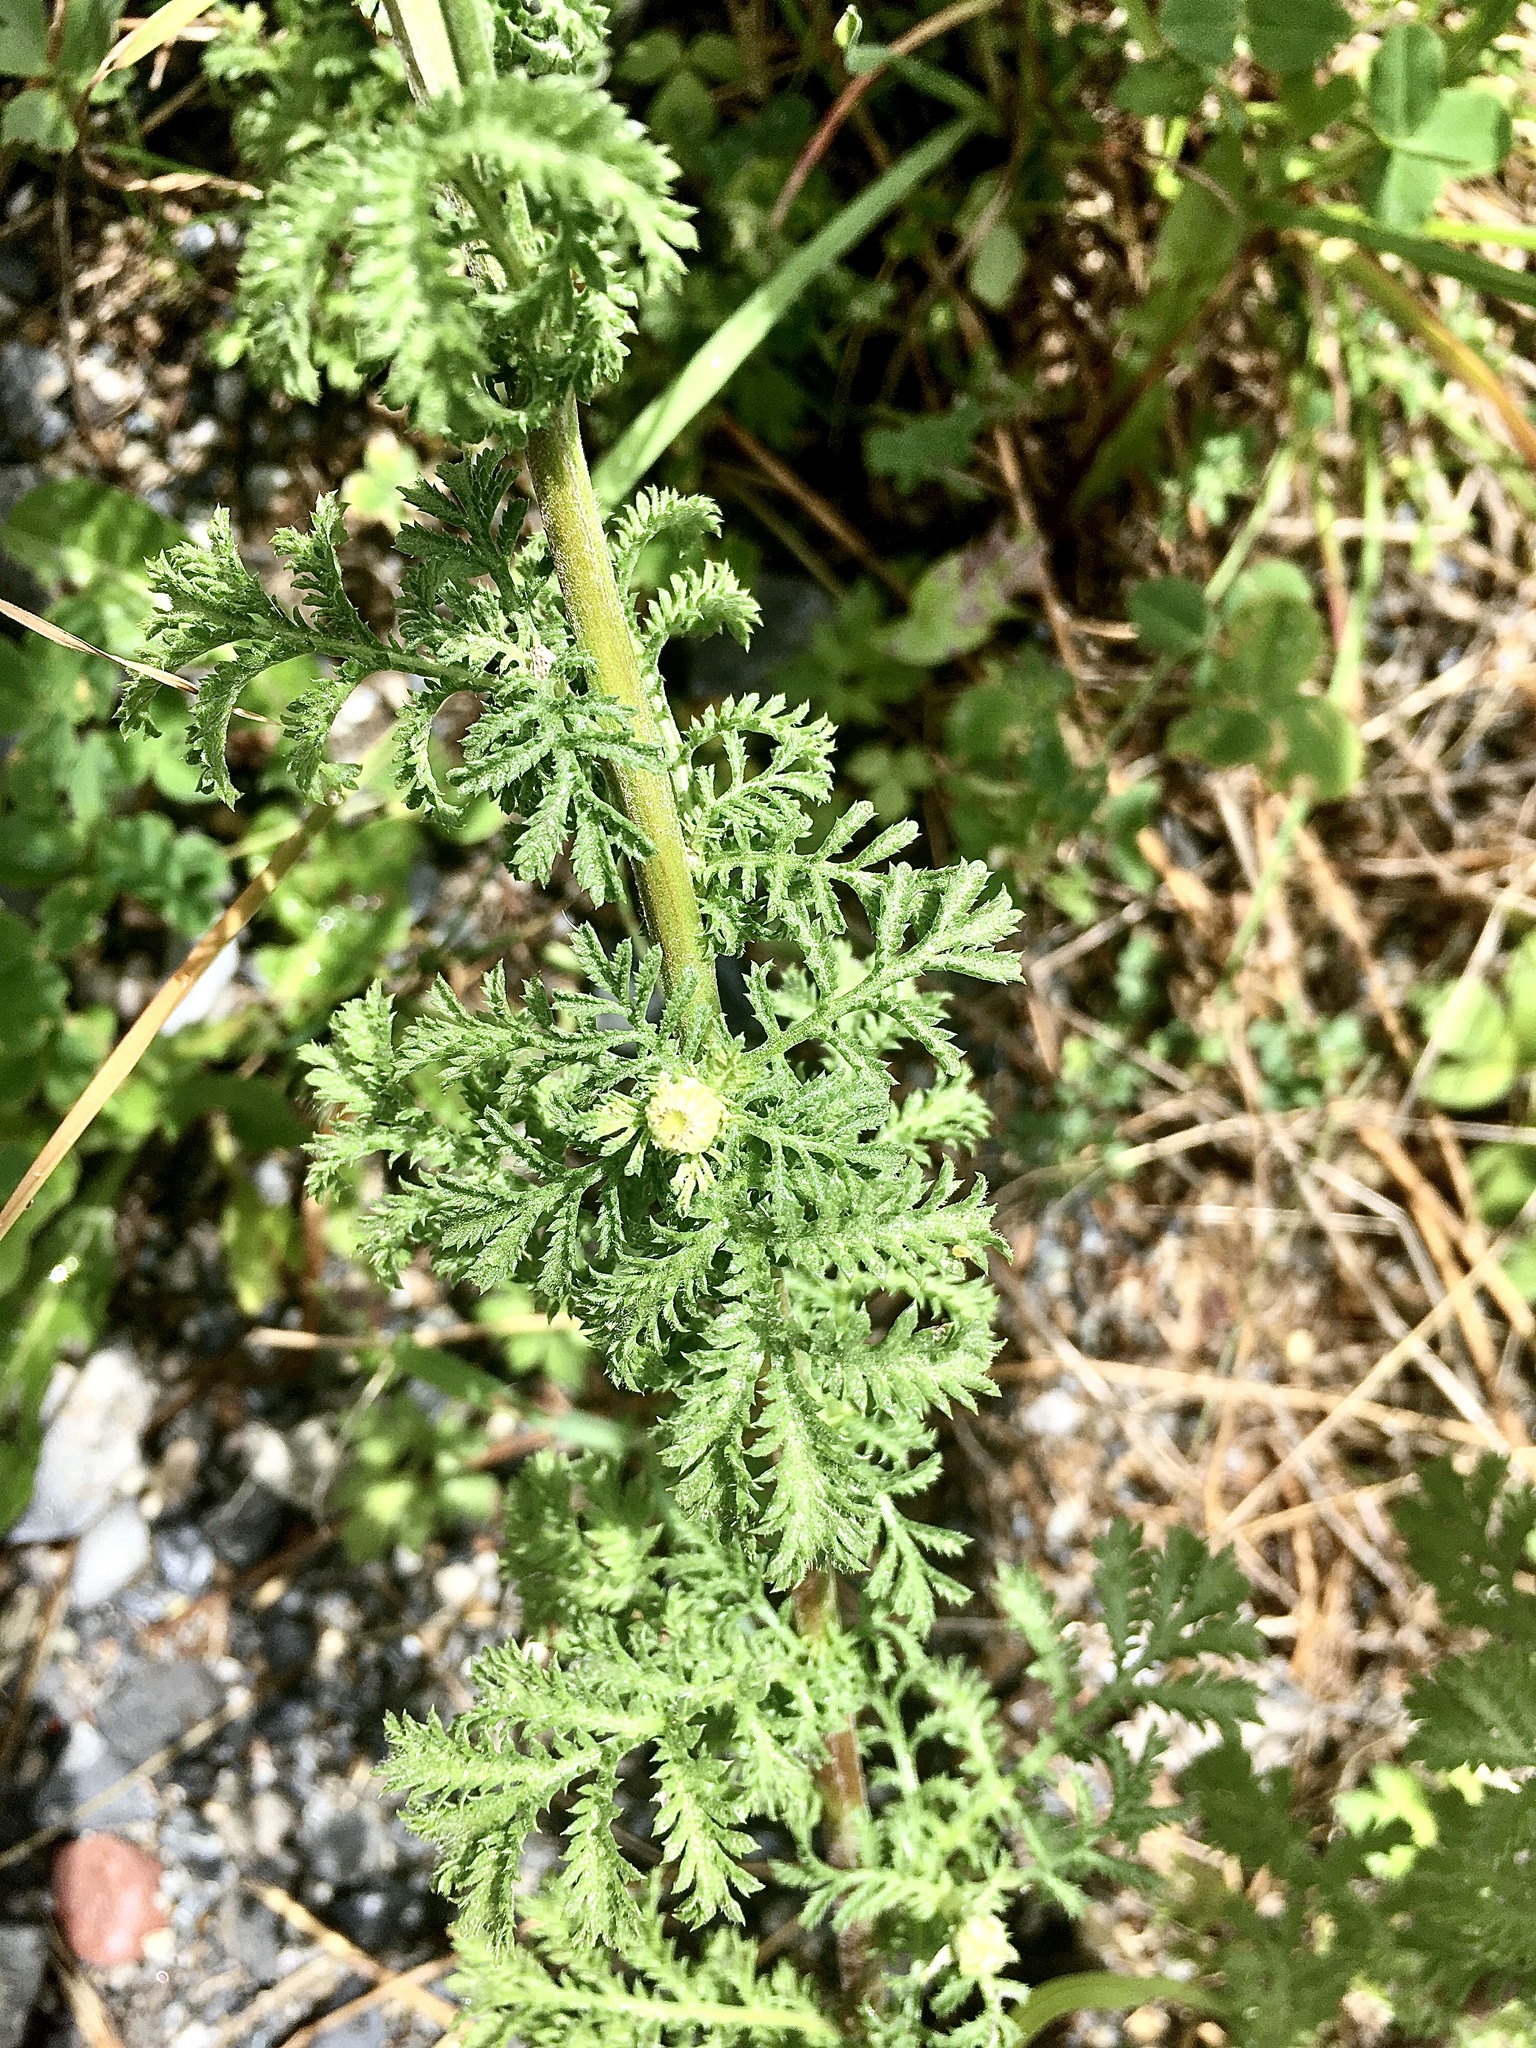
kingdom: Plantae
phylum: Tracheophyta
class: Magnoliopsida
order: Asterales
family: Asteraceae
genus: Cota
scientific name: Cota tinctoria
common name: Golden chamomile
